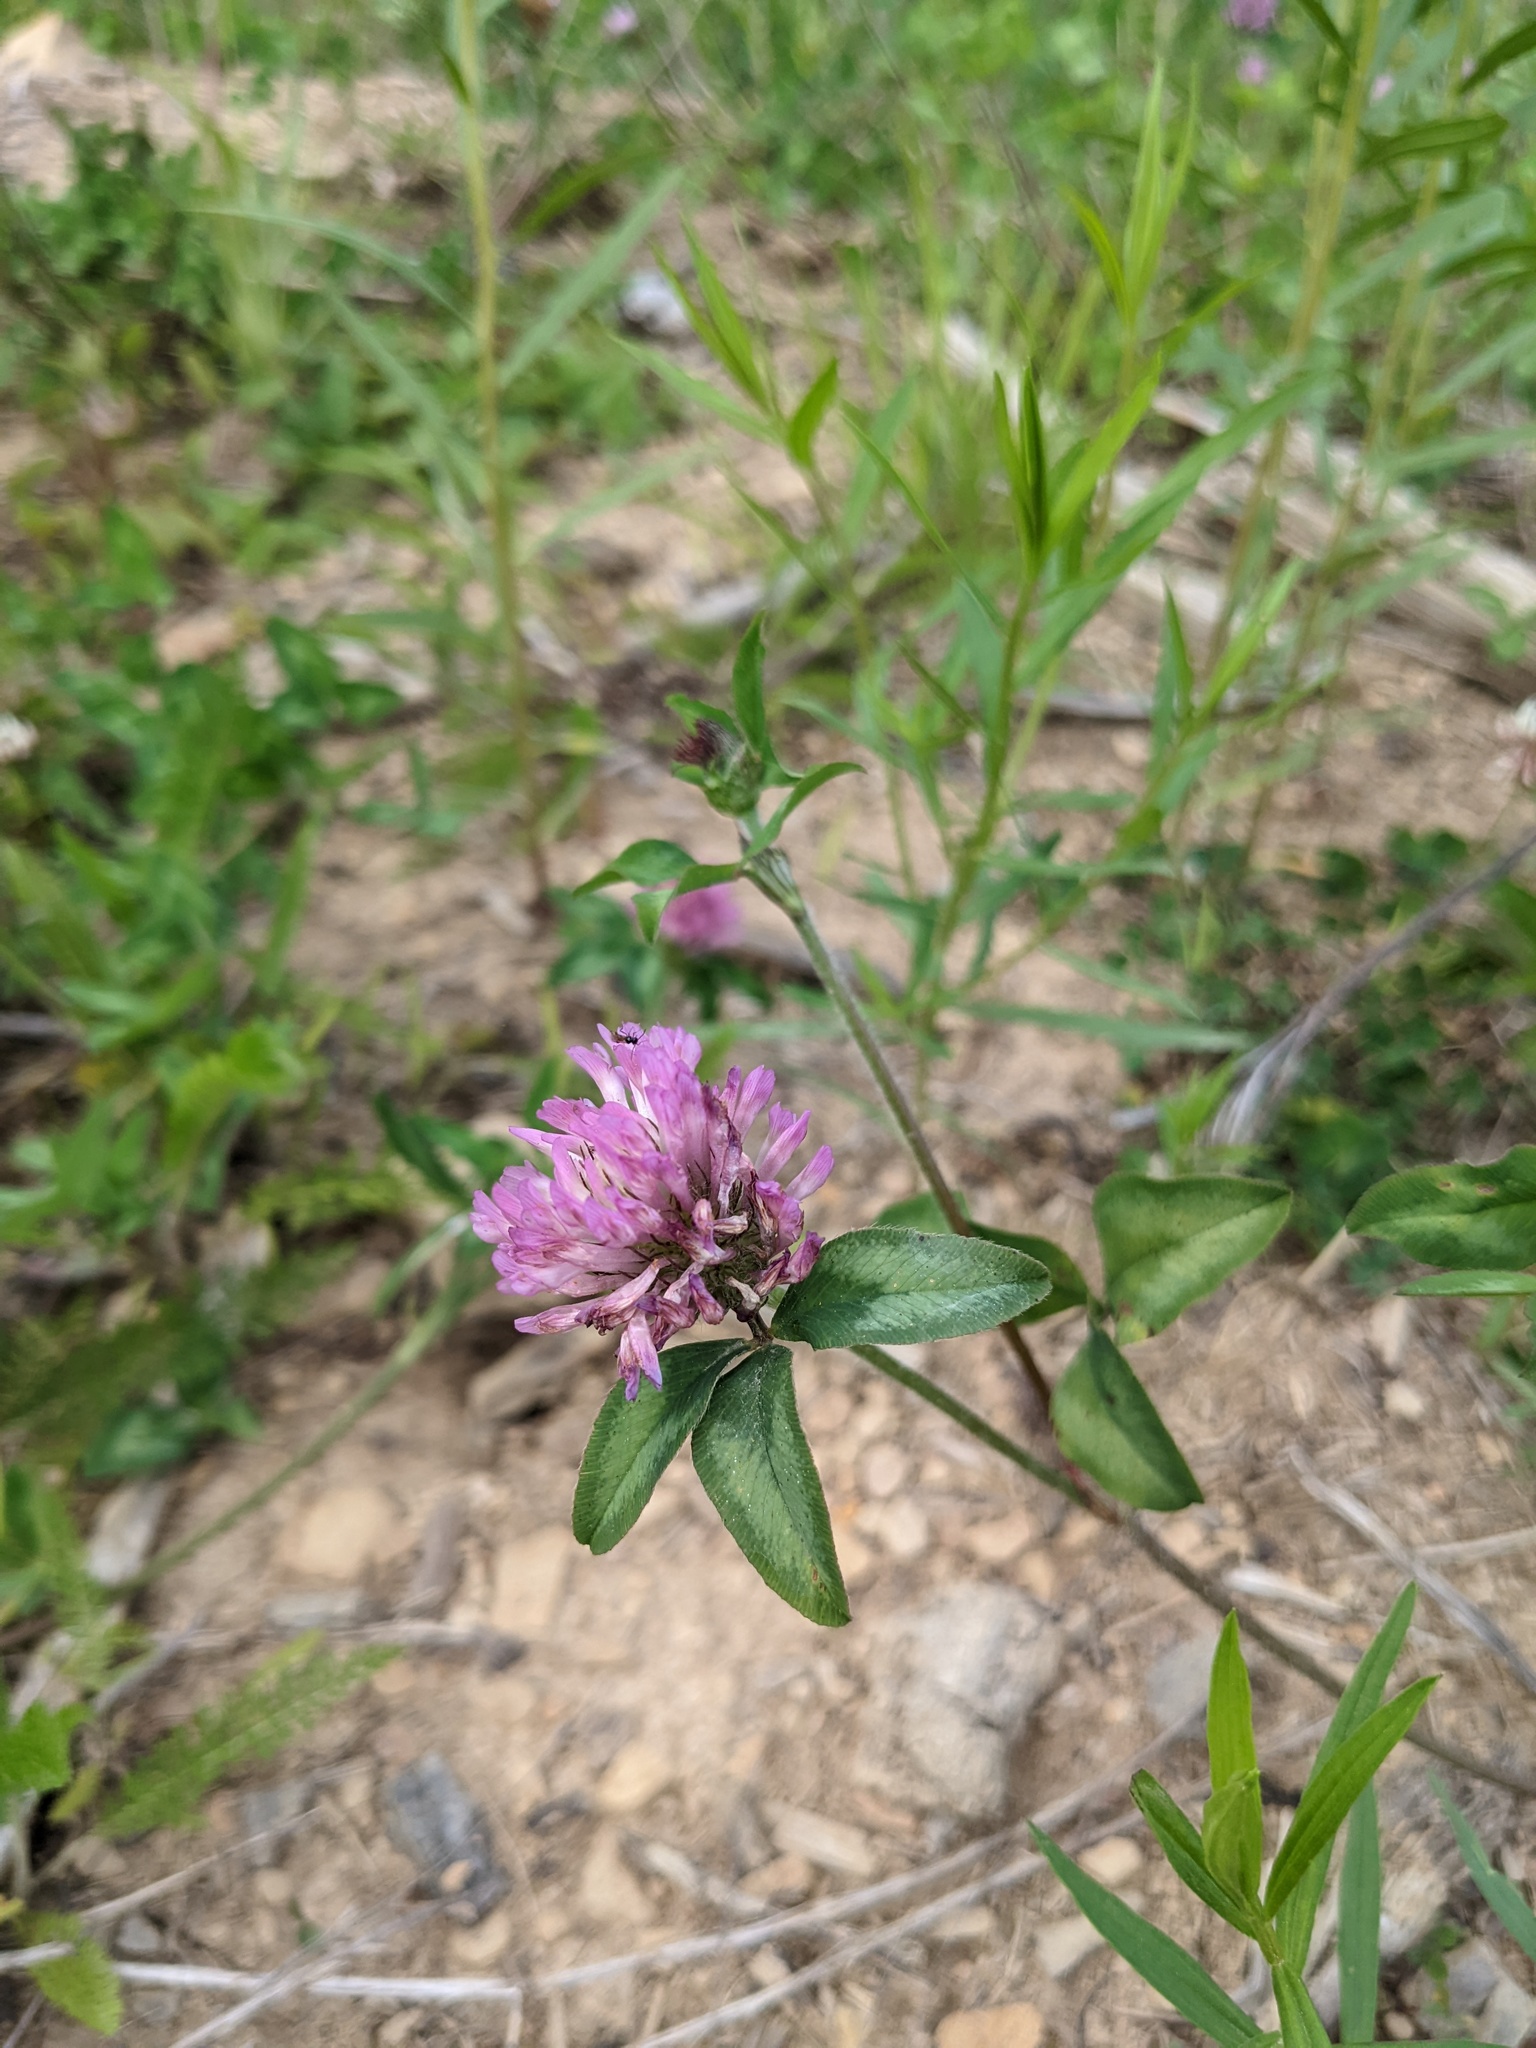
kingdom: Plantae
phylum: Tracheophyta
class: Magnoliopsida
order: Fabales
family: Fabaceae
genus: Trifolium
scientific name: Trifolium pratense
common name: Red clover
